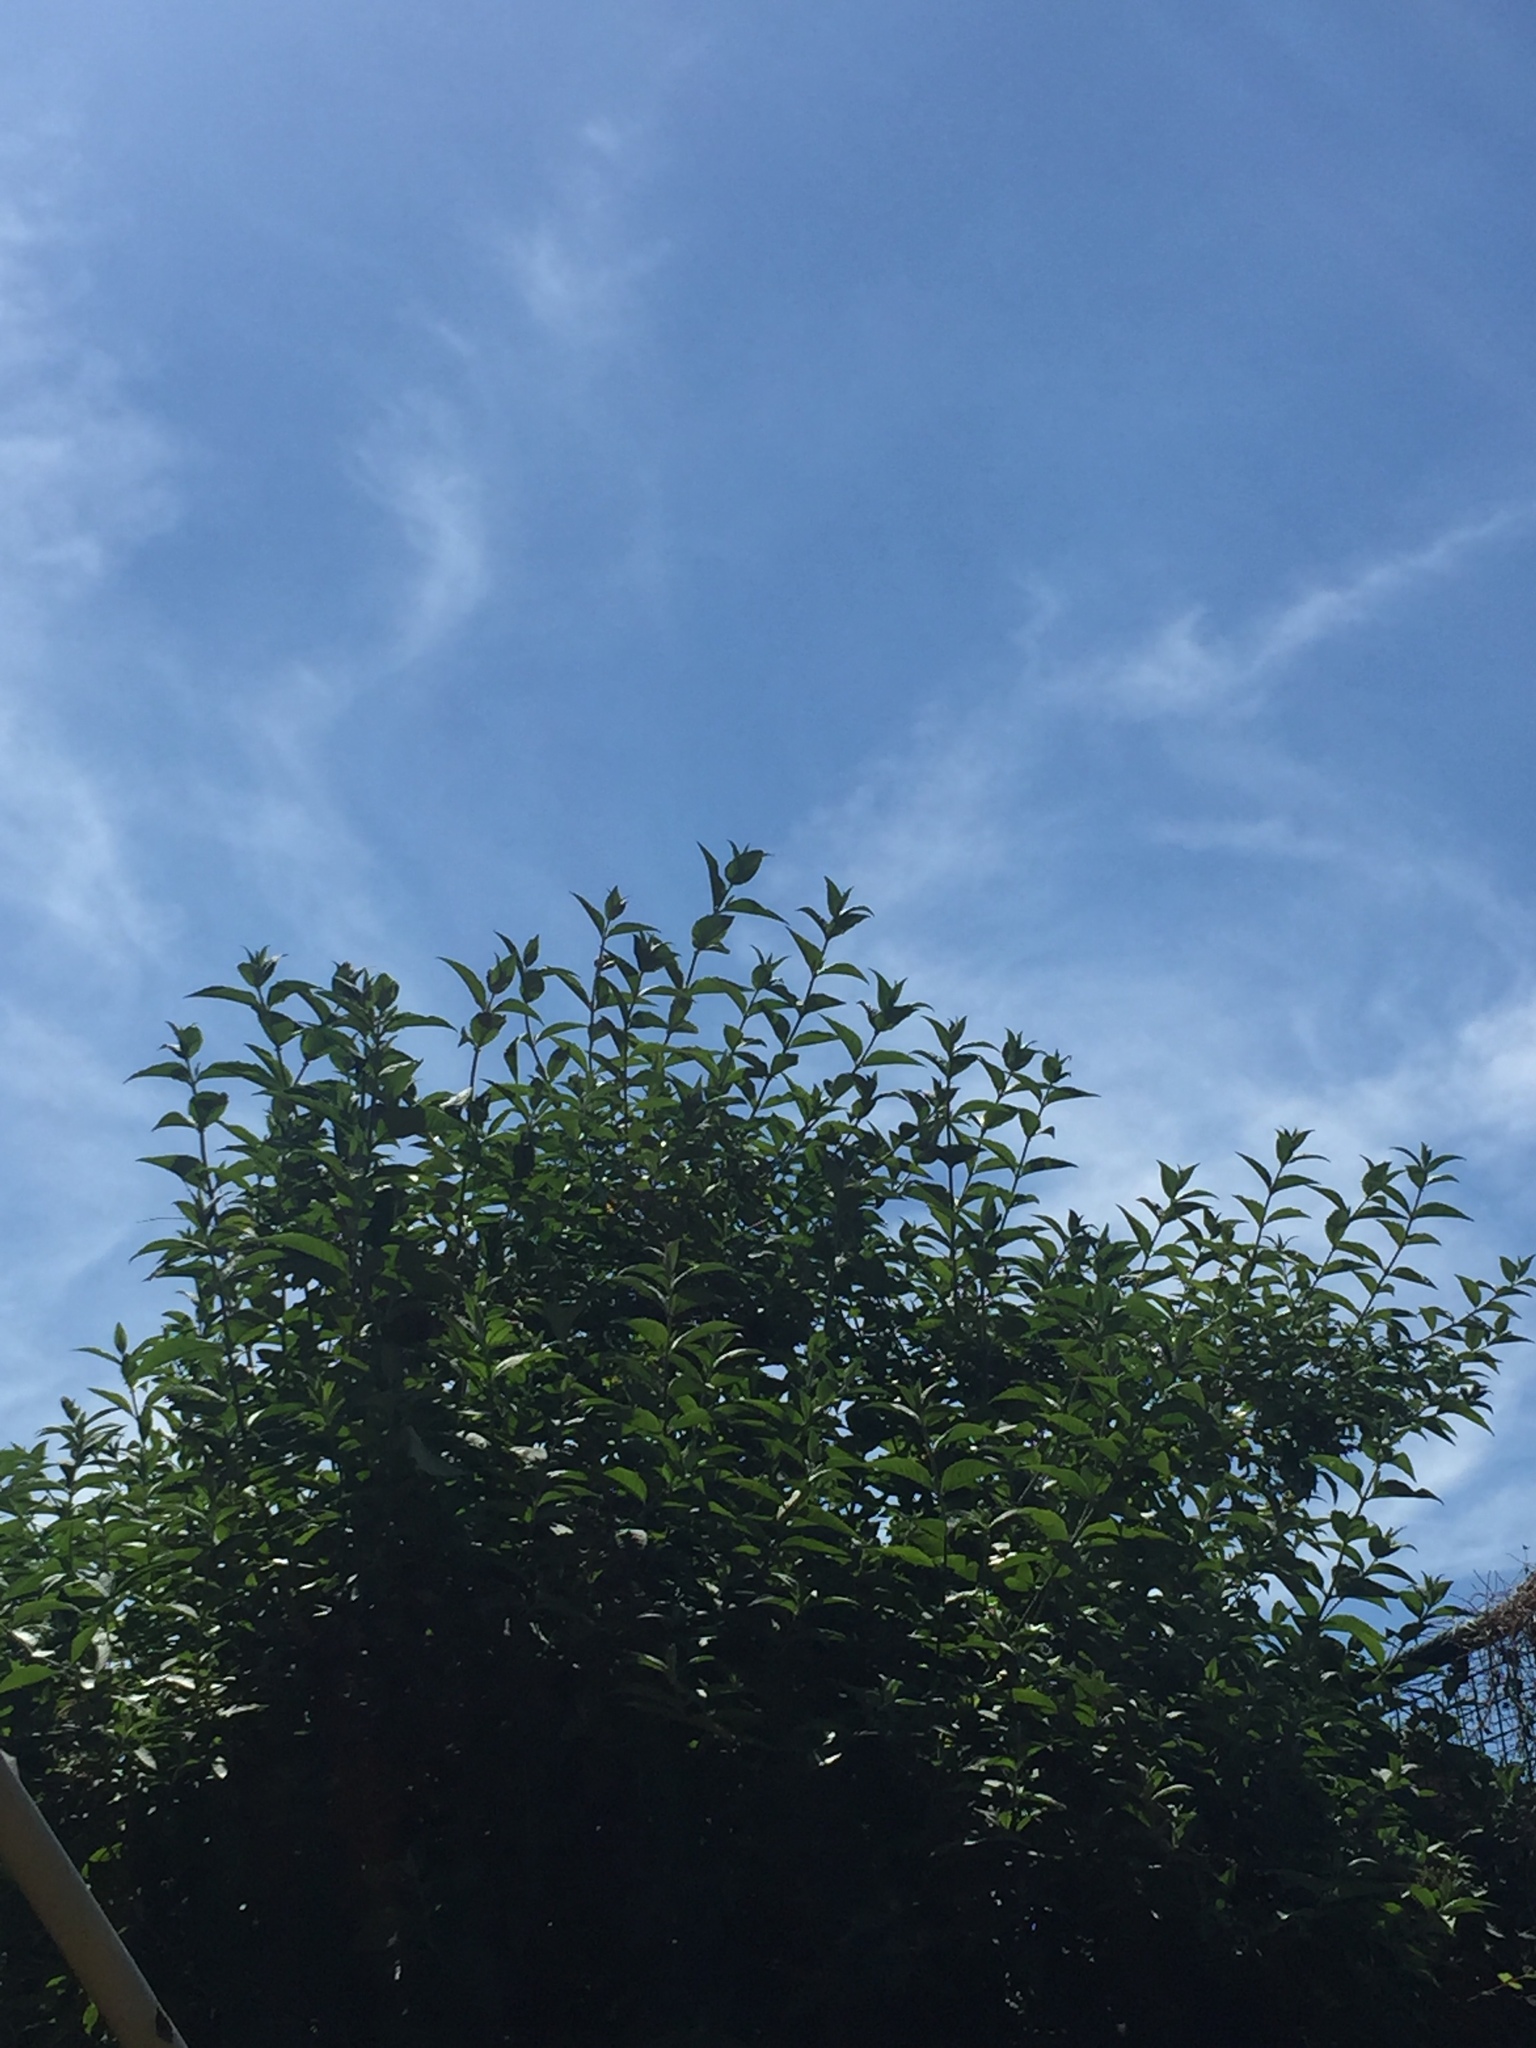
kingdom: Plantae
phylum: Tracheophyta
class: Magnoliopsida
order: Lamiales
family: Scrophulariaceae
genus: Buddleja
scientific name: Buddleja davidii
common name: Butterfly-bush
